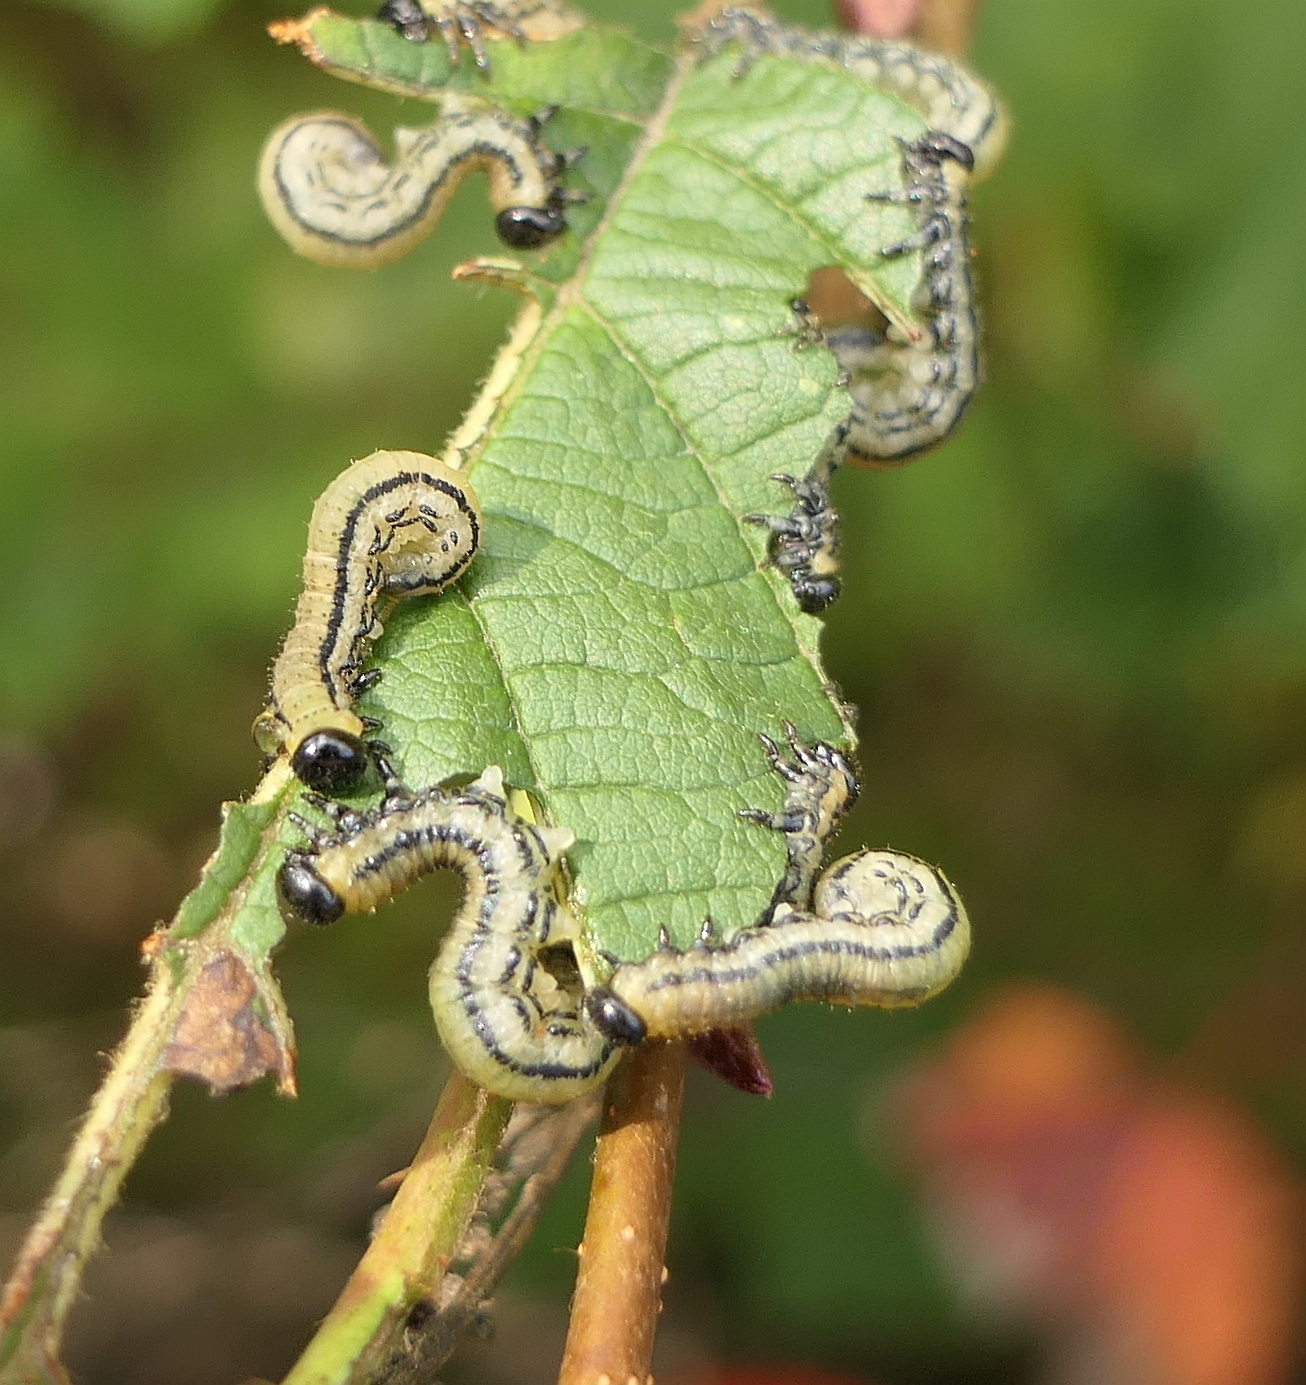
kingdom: Animalia
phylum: Arthropoda
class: Insecta
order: Hymenoptera
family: Tenthredinidae
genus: Hemichroa
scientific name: Hemichroa crocea
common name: Striped alder sawfly
